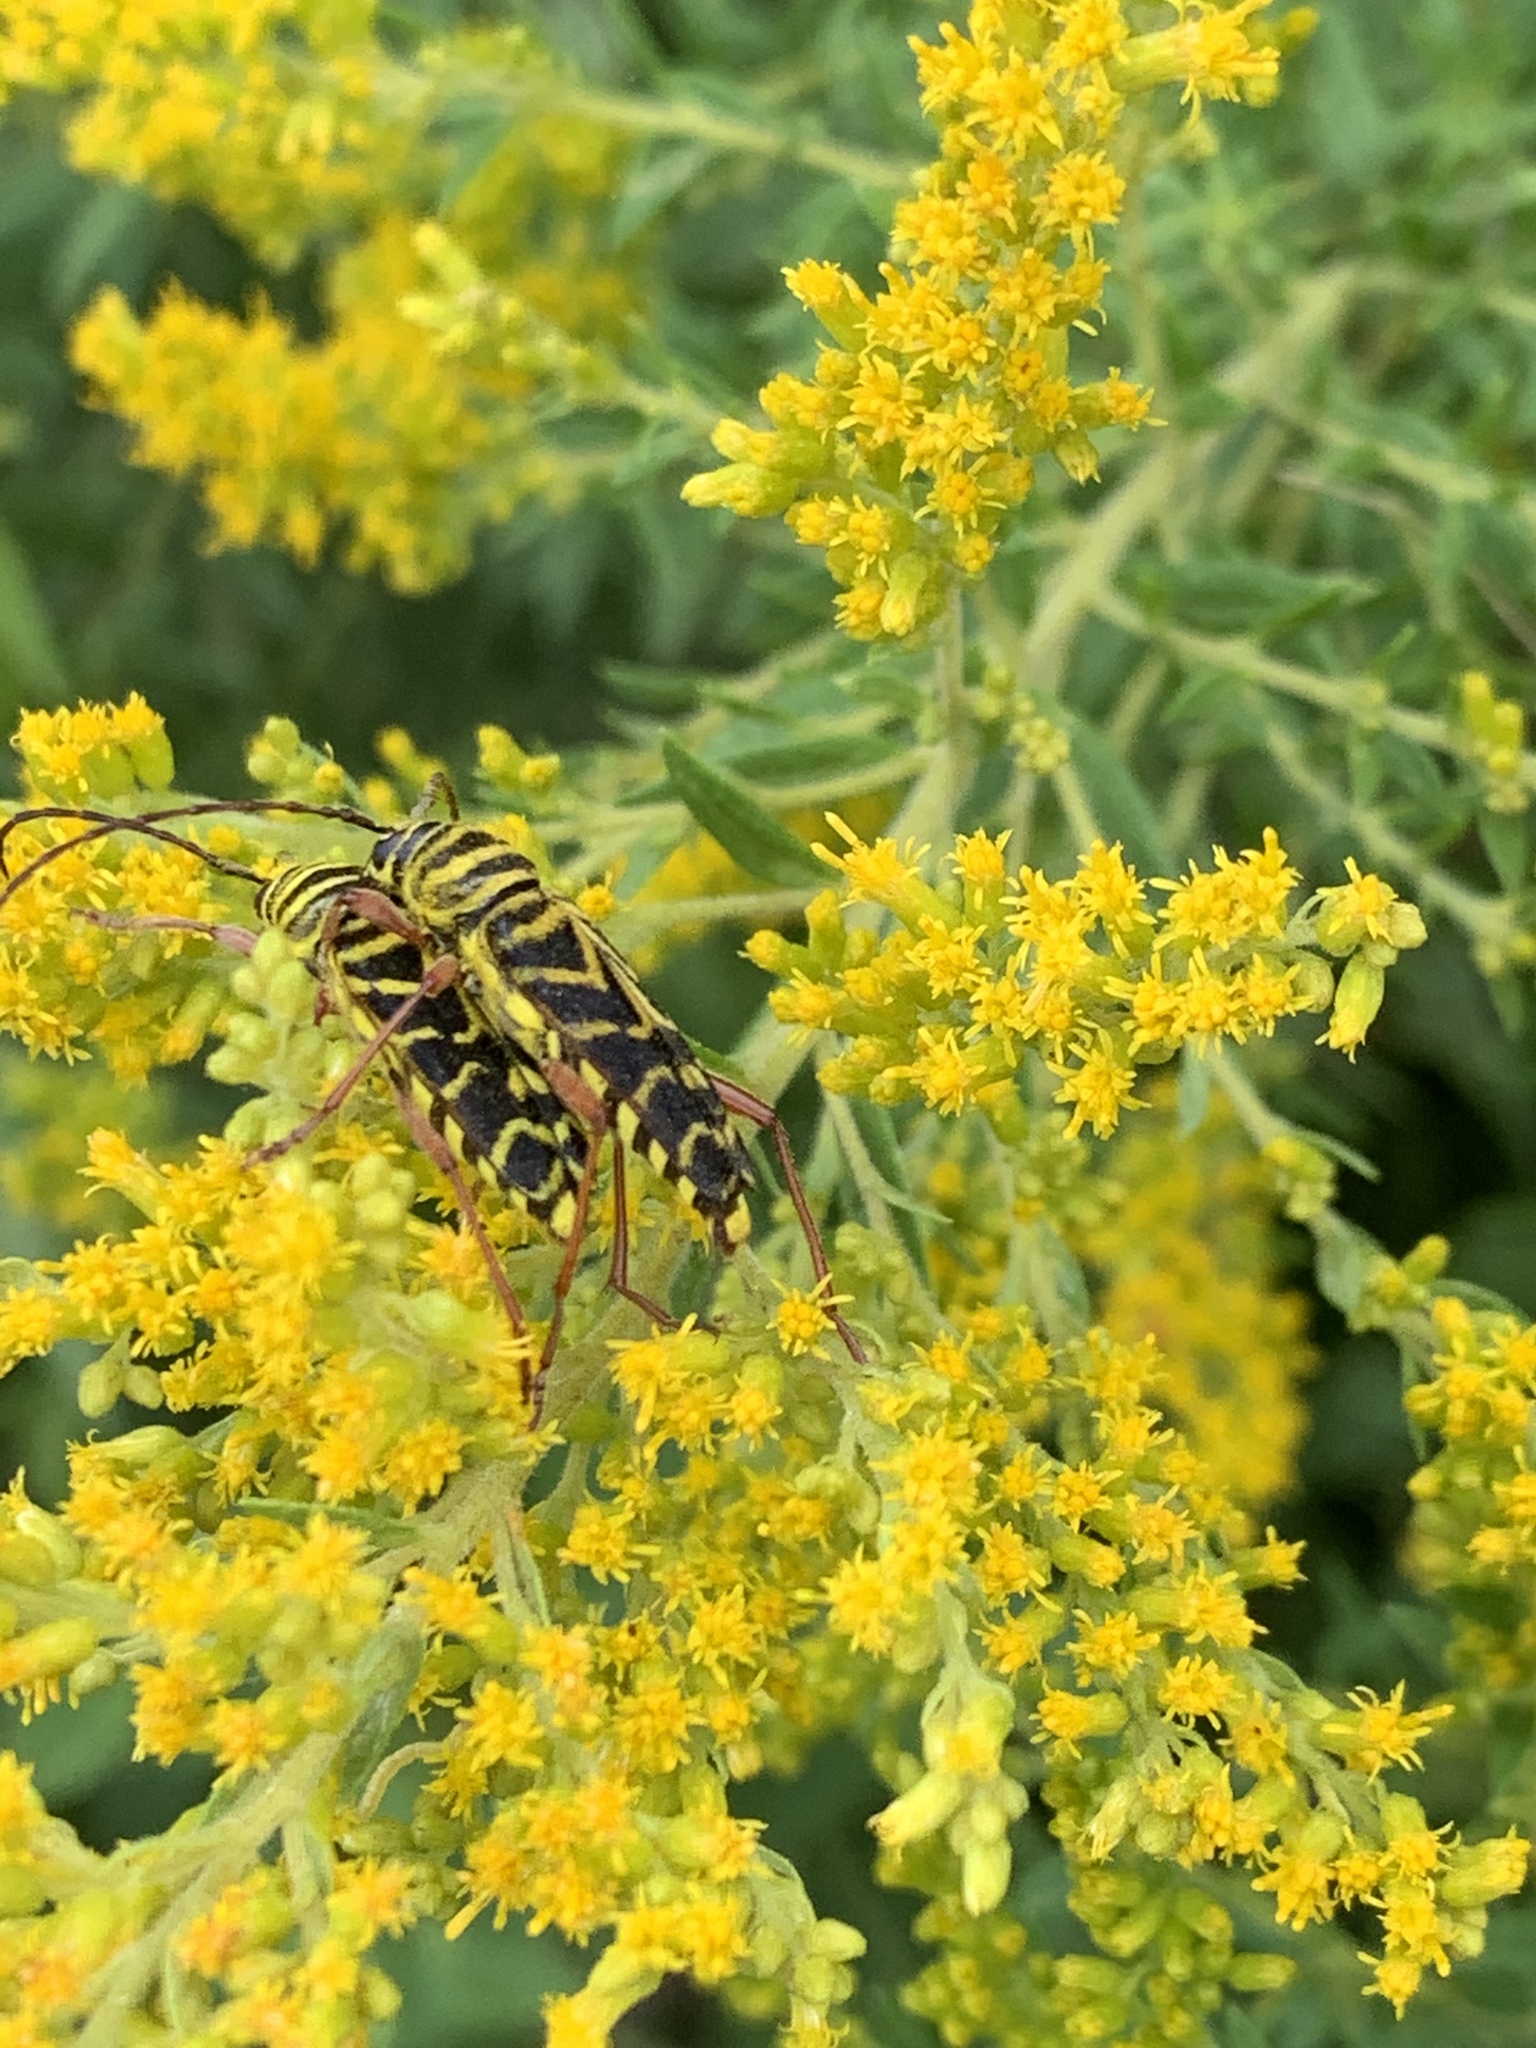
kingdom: Animalia
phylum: Arthropoda
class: Insecta
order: Coleoptera
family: Cerambycidae
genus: Megacyllene
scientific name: Megacyllene robiniae
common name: Locust borer
